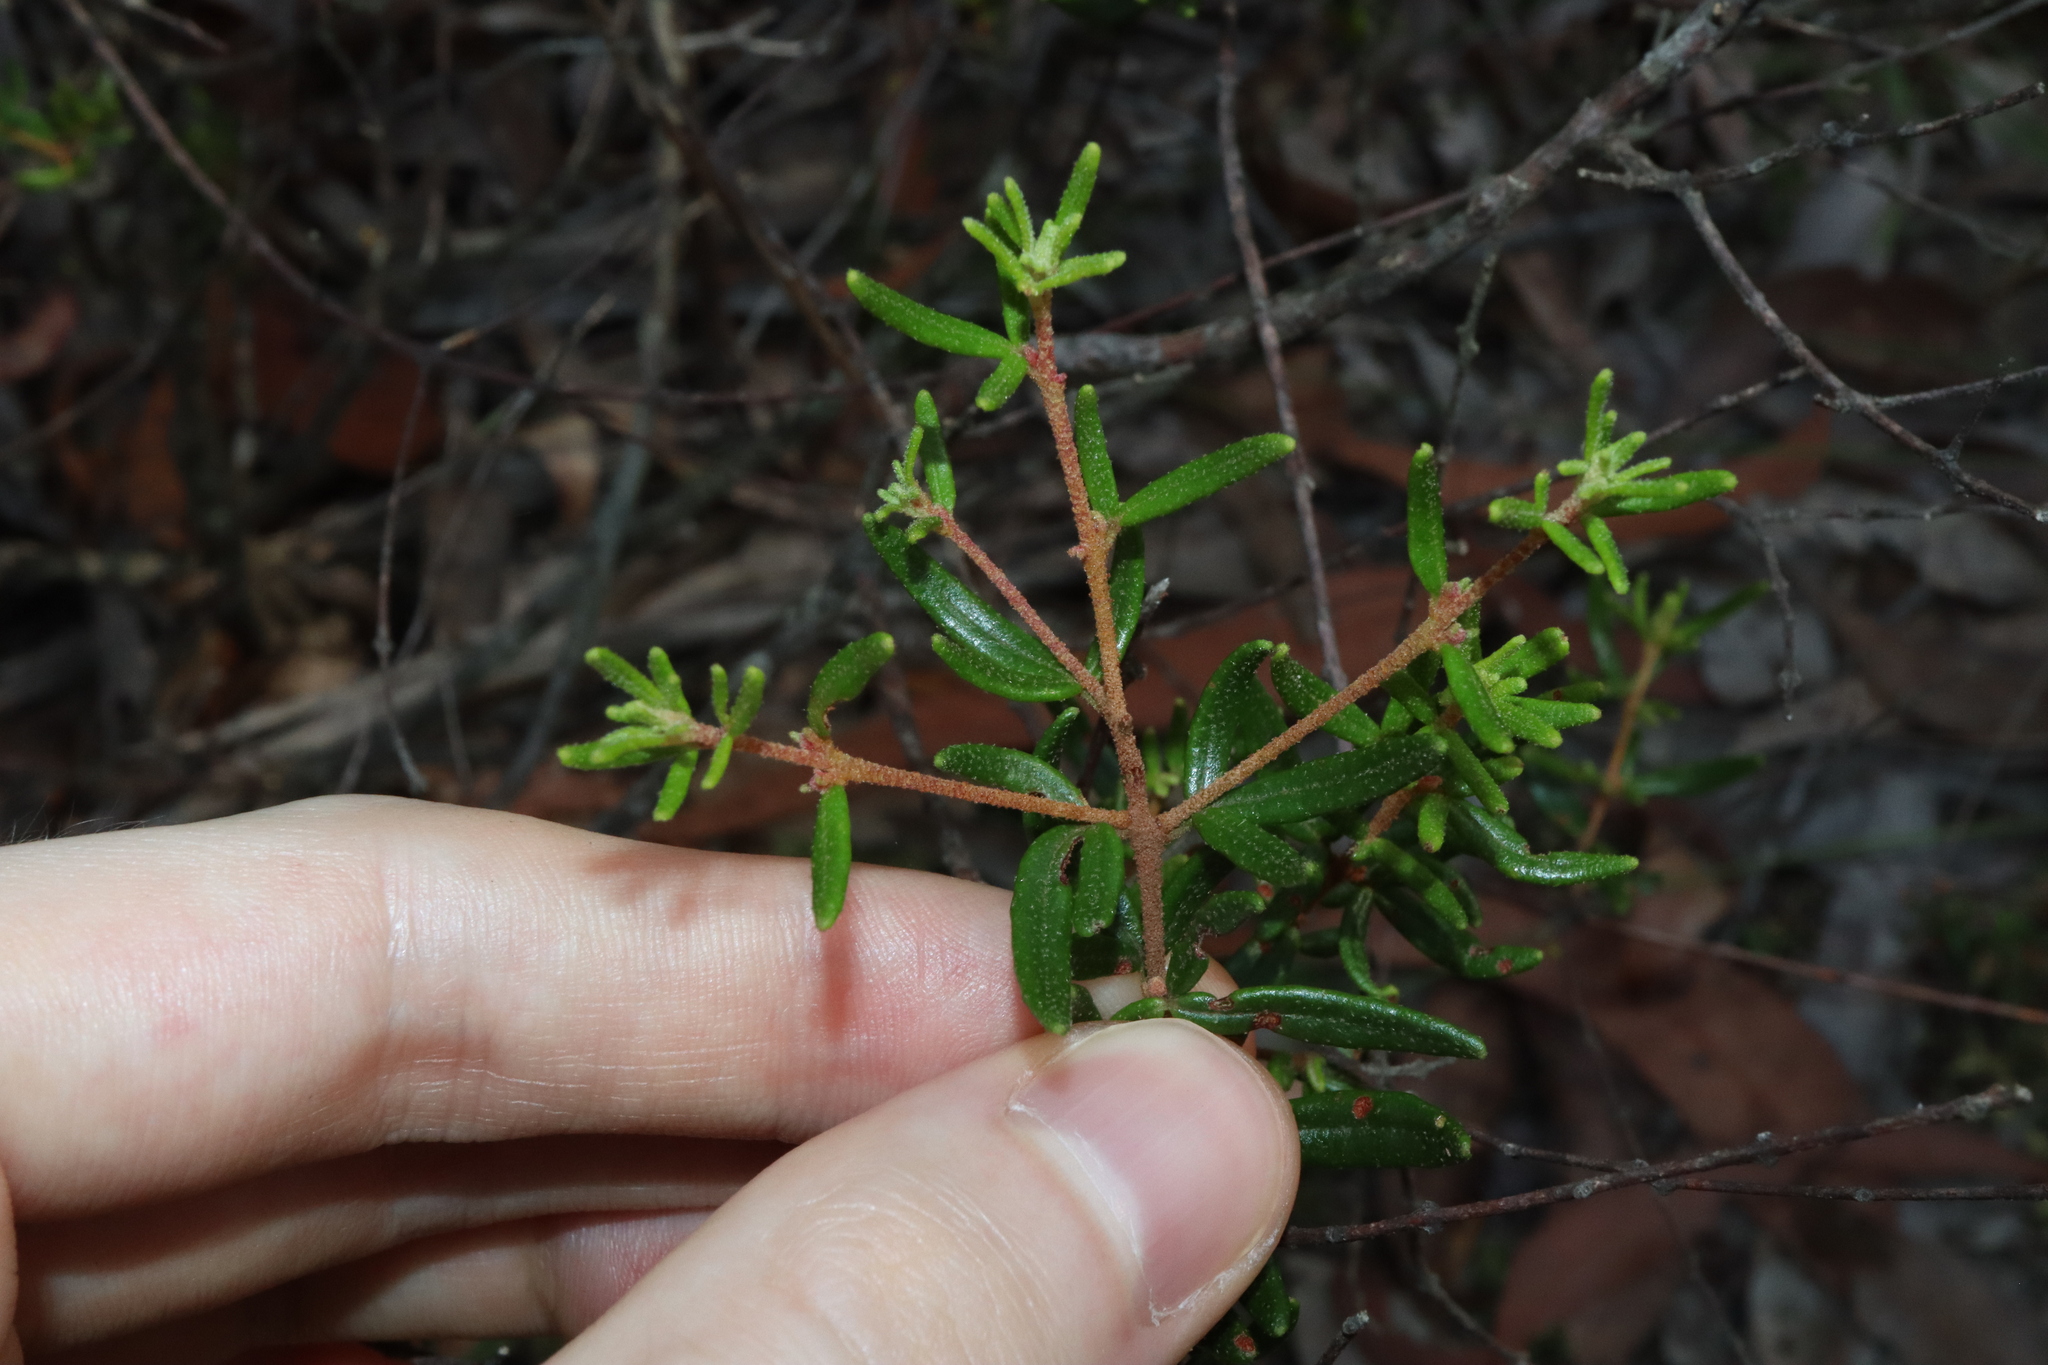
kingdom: Plantae
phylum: Tracheophyta
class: Magnoliopsida
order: Sapindales
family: Rutaceae
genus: Boronia
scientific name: Boronia ledifolia
